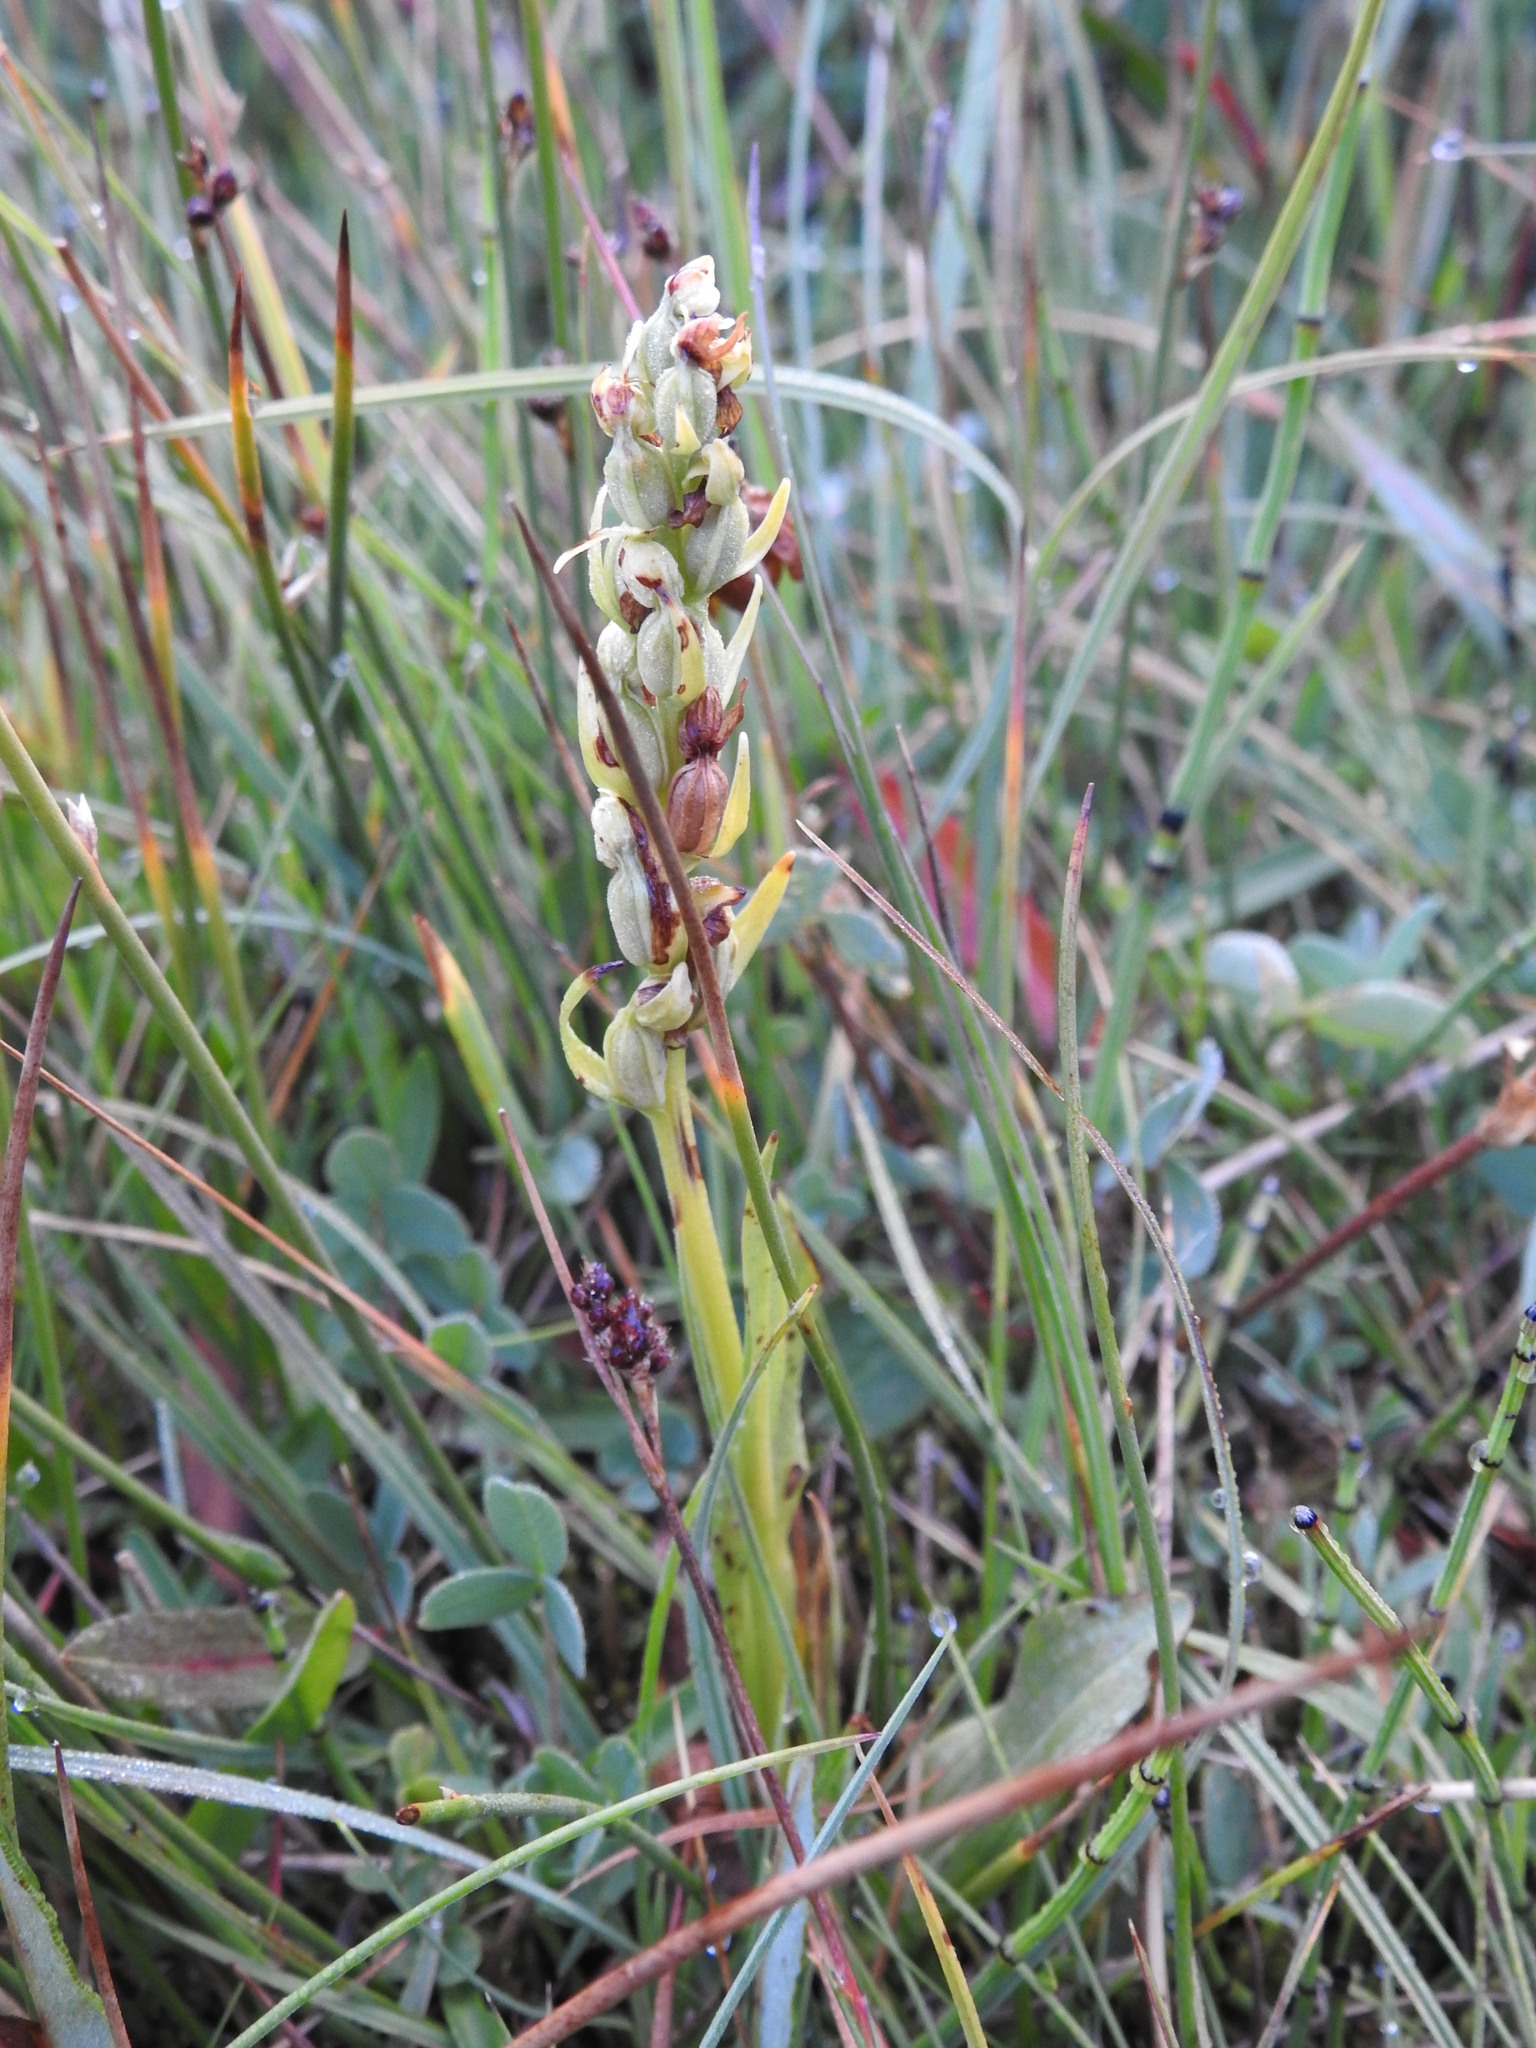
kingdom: Plantae
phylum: Tracheophyta
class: Liliopsida
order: Asparagales
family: Orchidaceae
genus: Dactylorhiza
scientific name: Dactylorhiza viridis
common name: Longbract frog orchid
